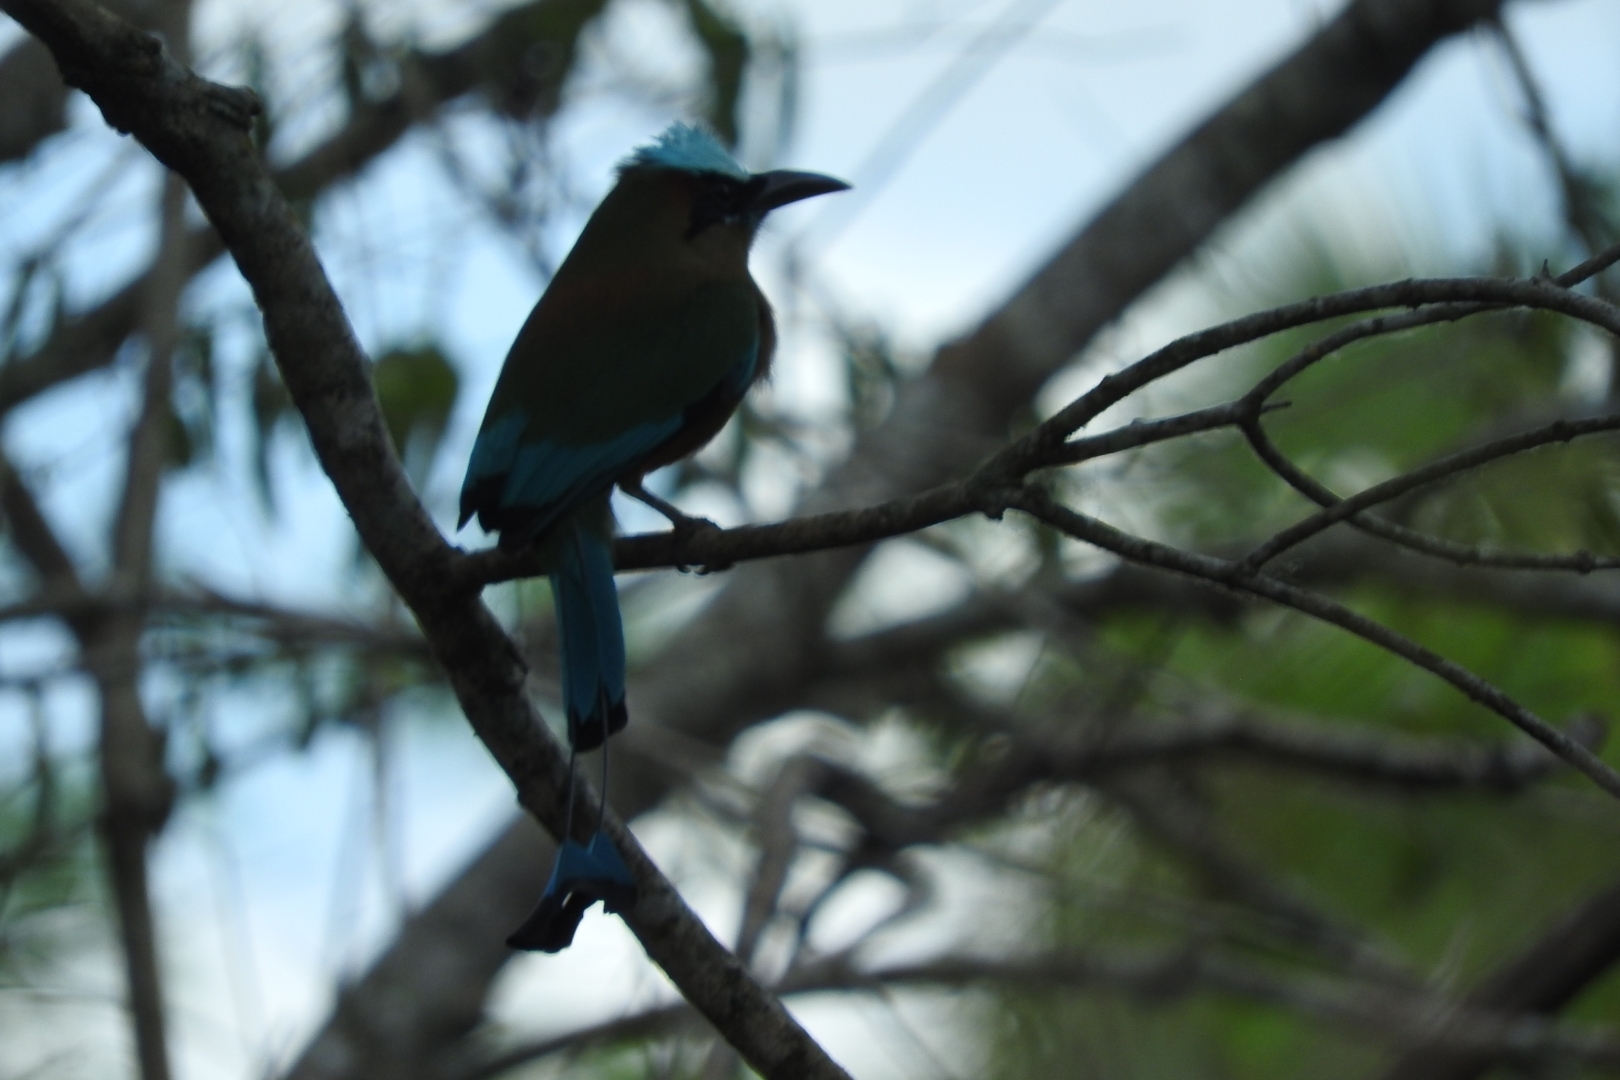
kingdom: Animalia
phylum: Chordata
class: Aves
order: Coraciiformes
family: Momotidae
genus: Eumomota
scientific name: Eumomota superciliosa
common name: Turquoise-browed motmot
